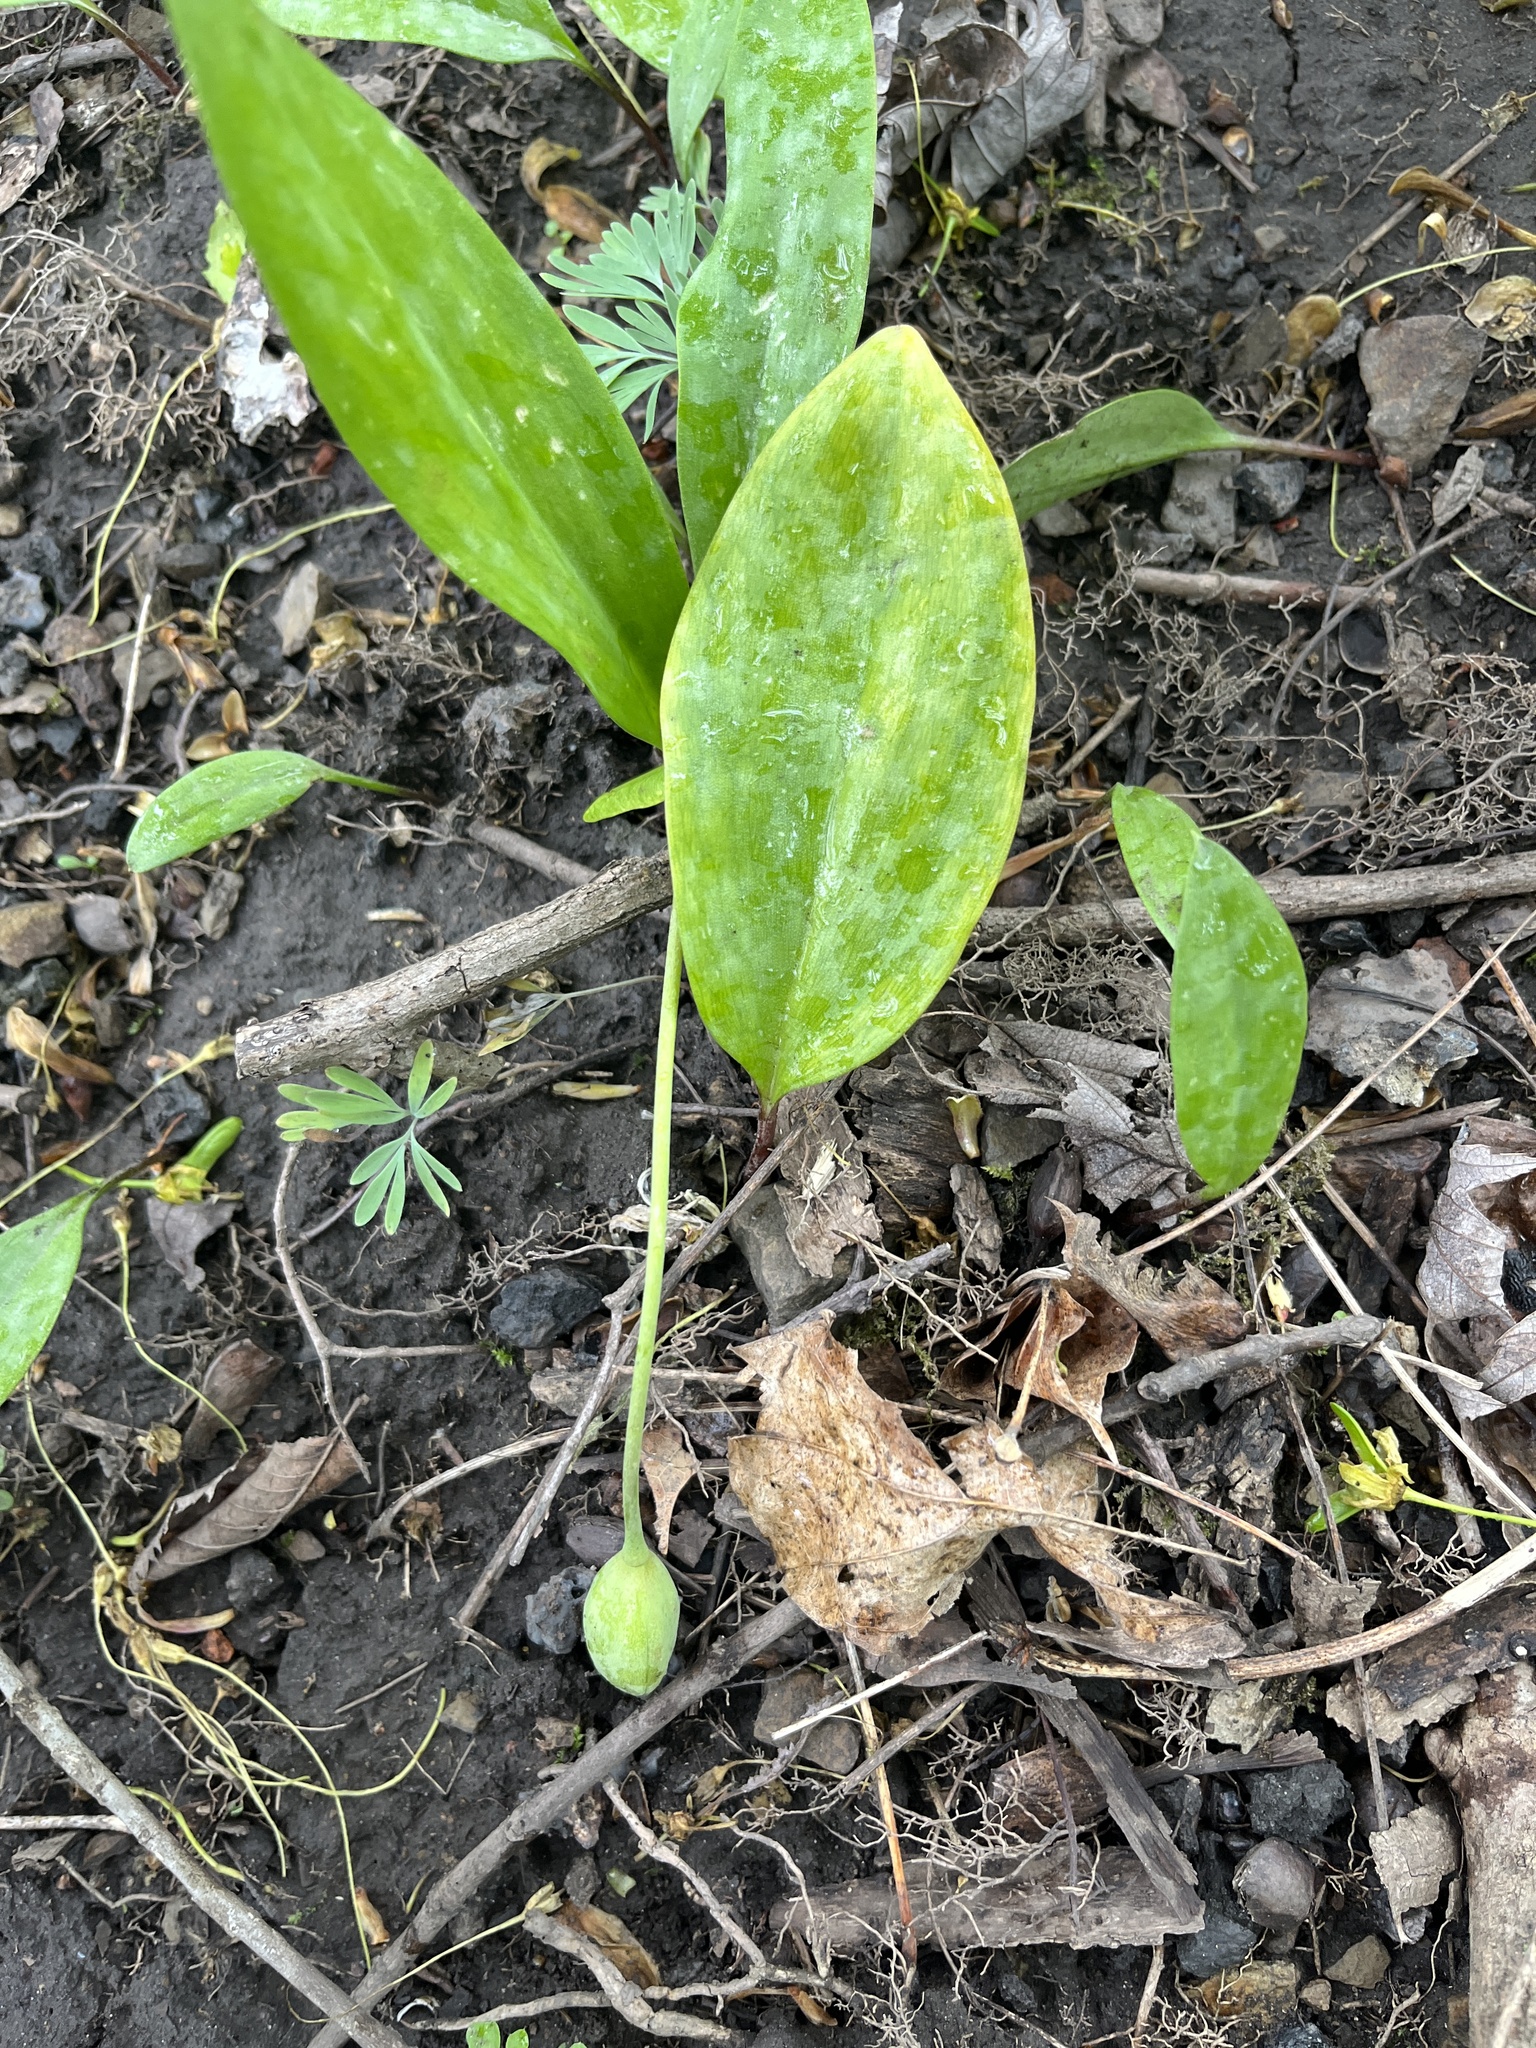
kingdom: Plantae
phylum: Tracheophyta
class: Liliopsida
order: Liliales
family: Liliaceae
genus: Erythronium
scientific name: Erythronium americanum
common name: Yellow adder's-tongue
